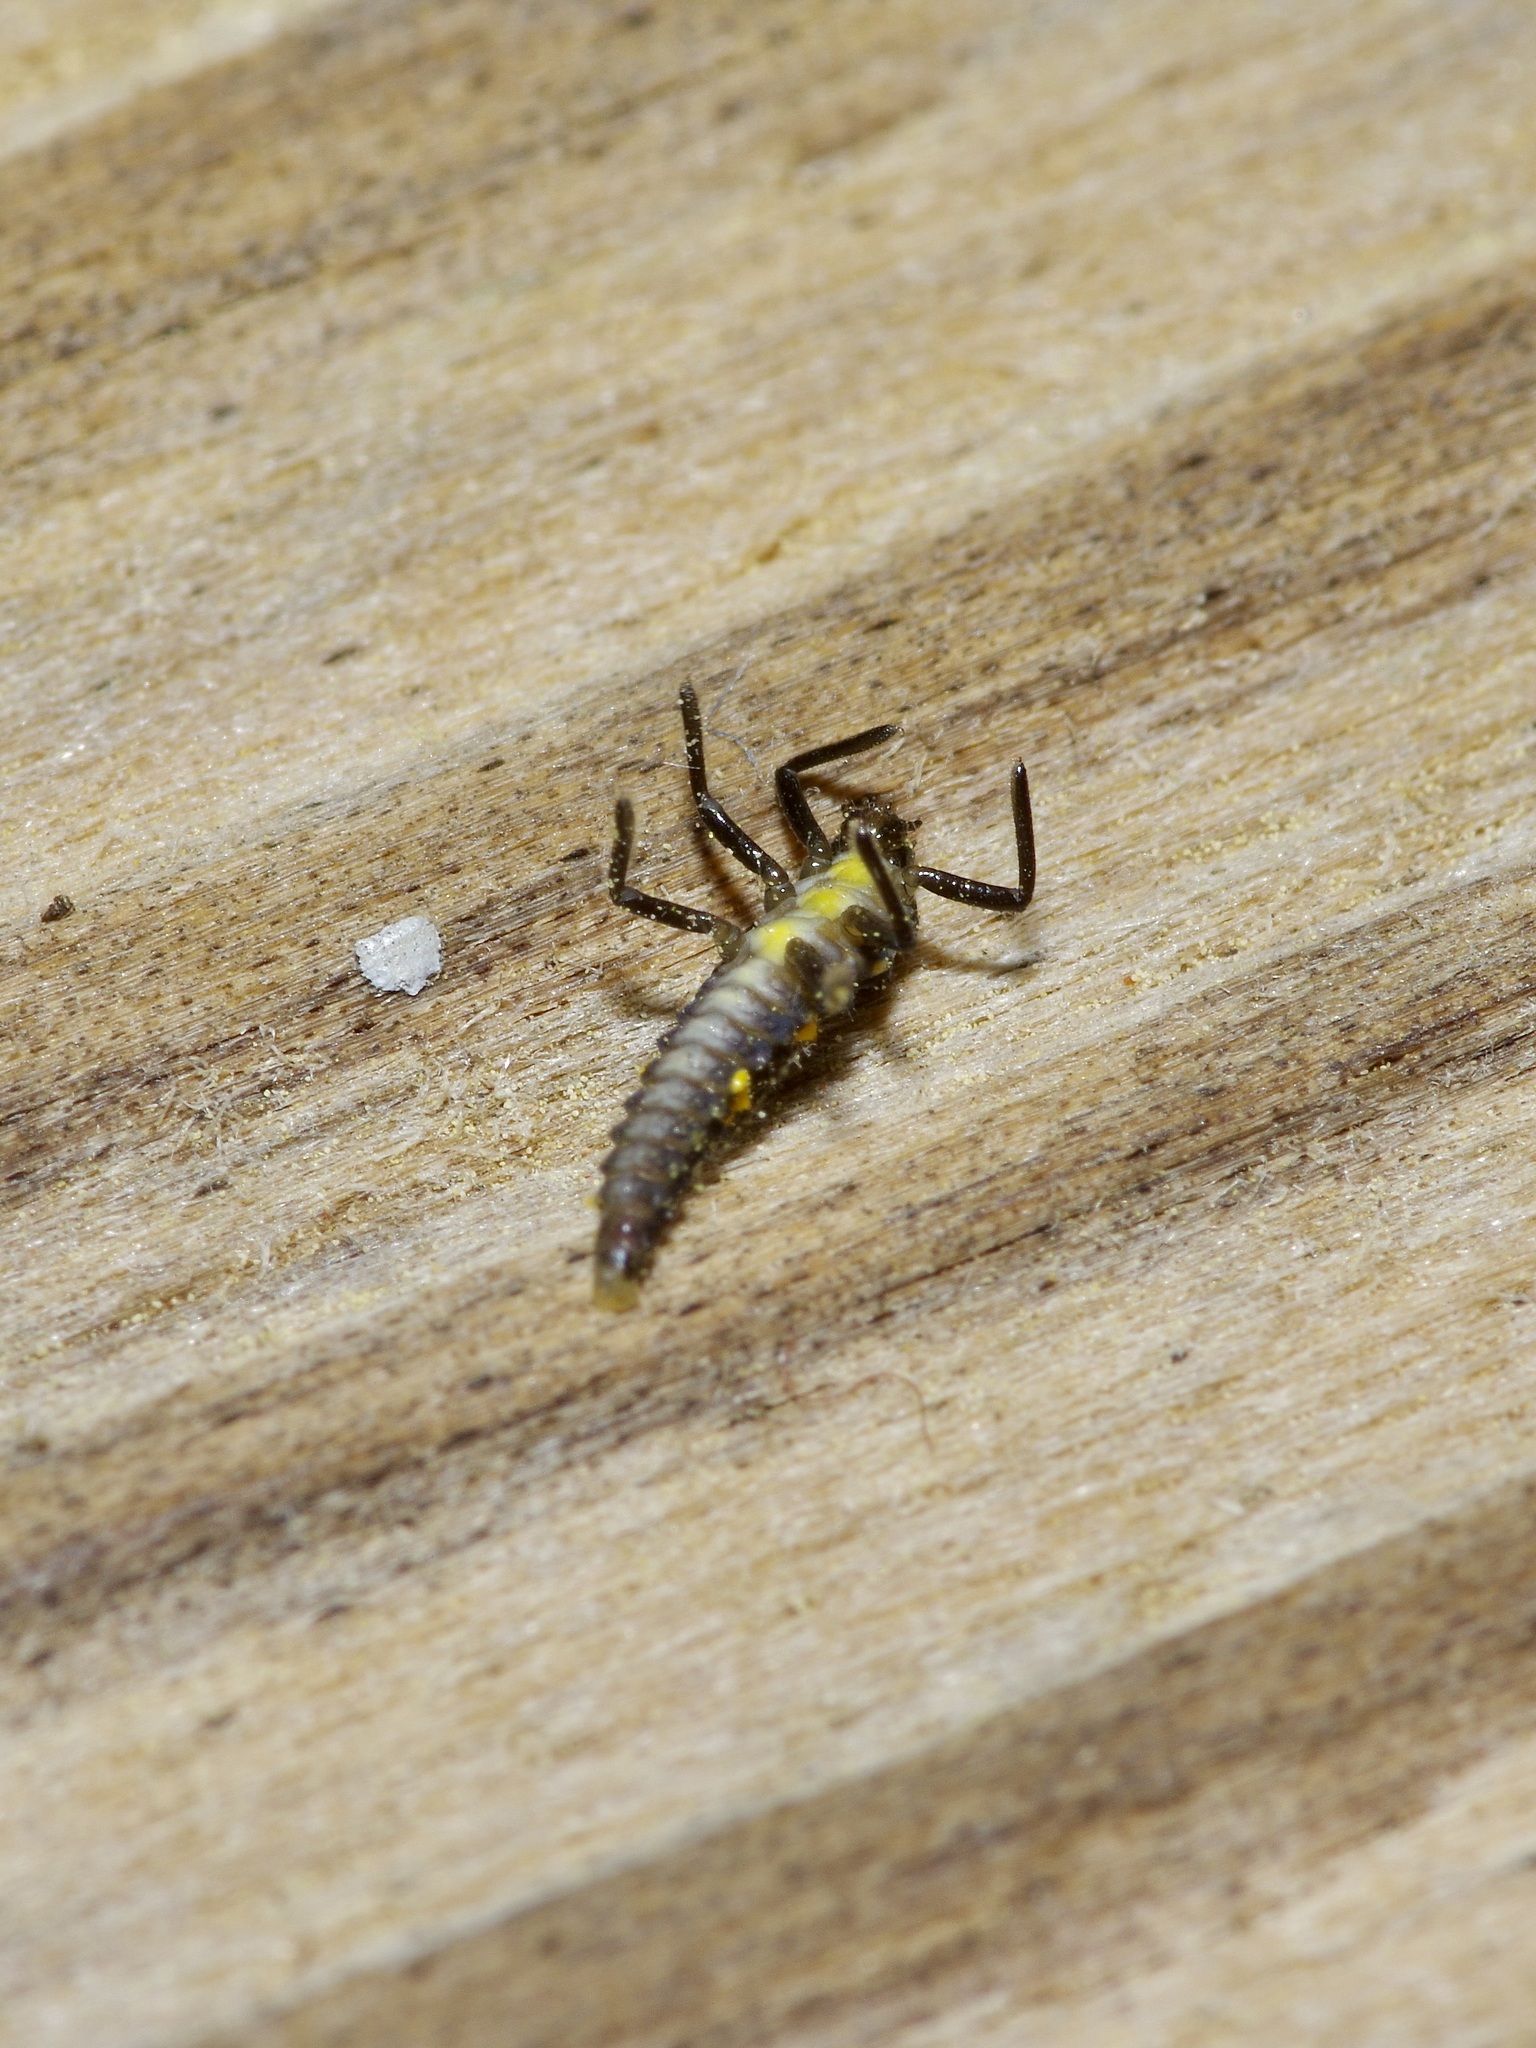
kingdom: Animalia
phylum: Arthropoda
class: Insecta
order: Coleoptera
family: Coccinellidae
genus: Olla
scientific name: Olla v-nigrum
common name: Ashy gray lady beetle
